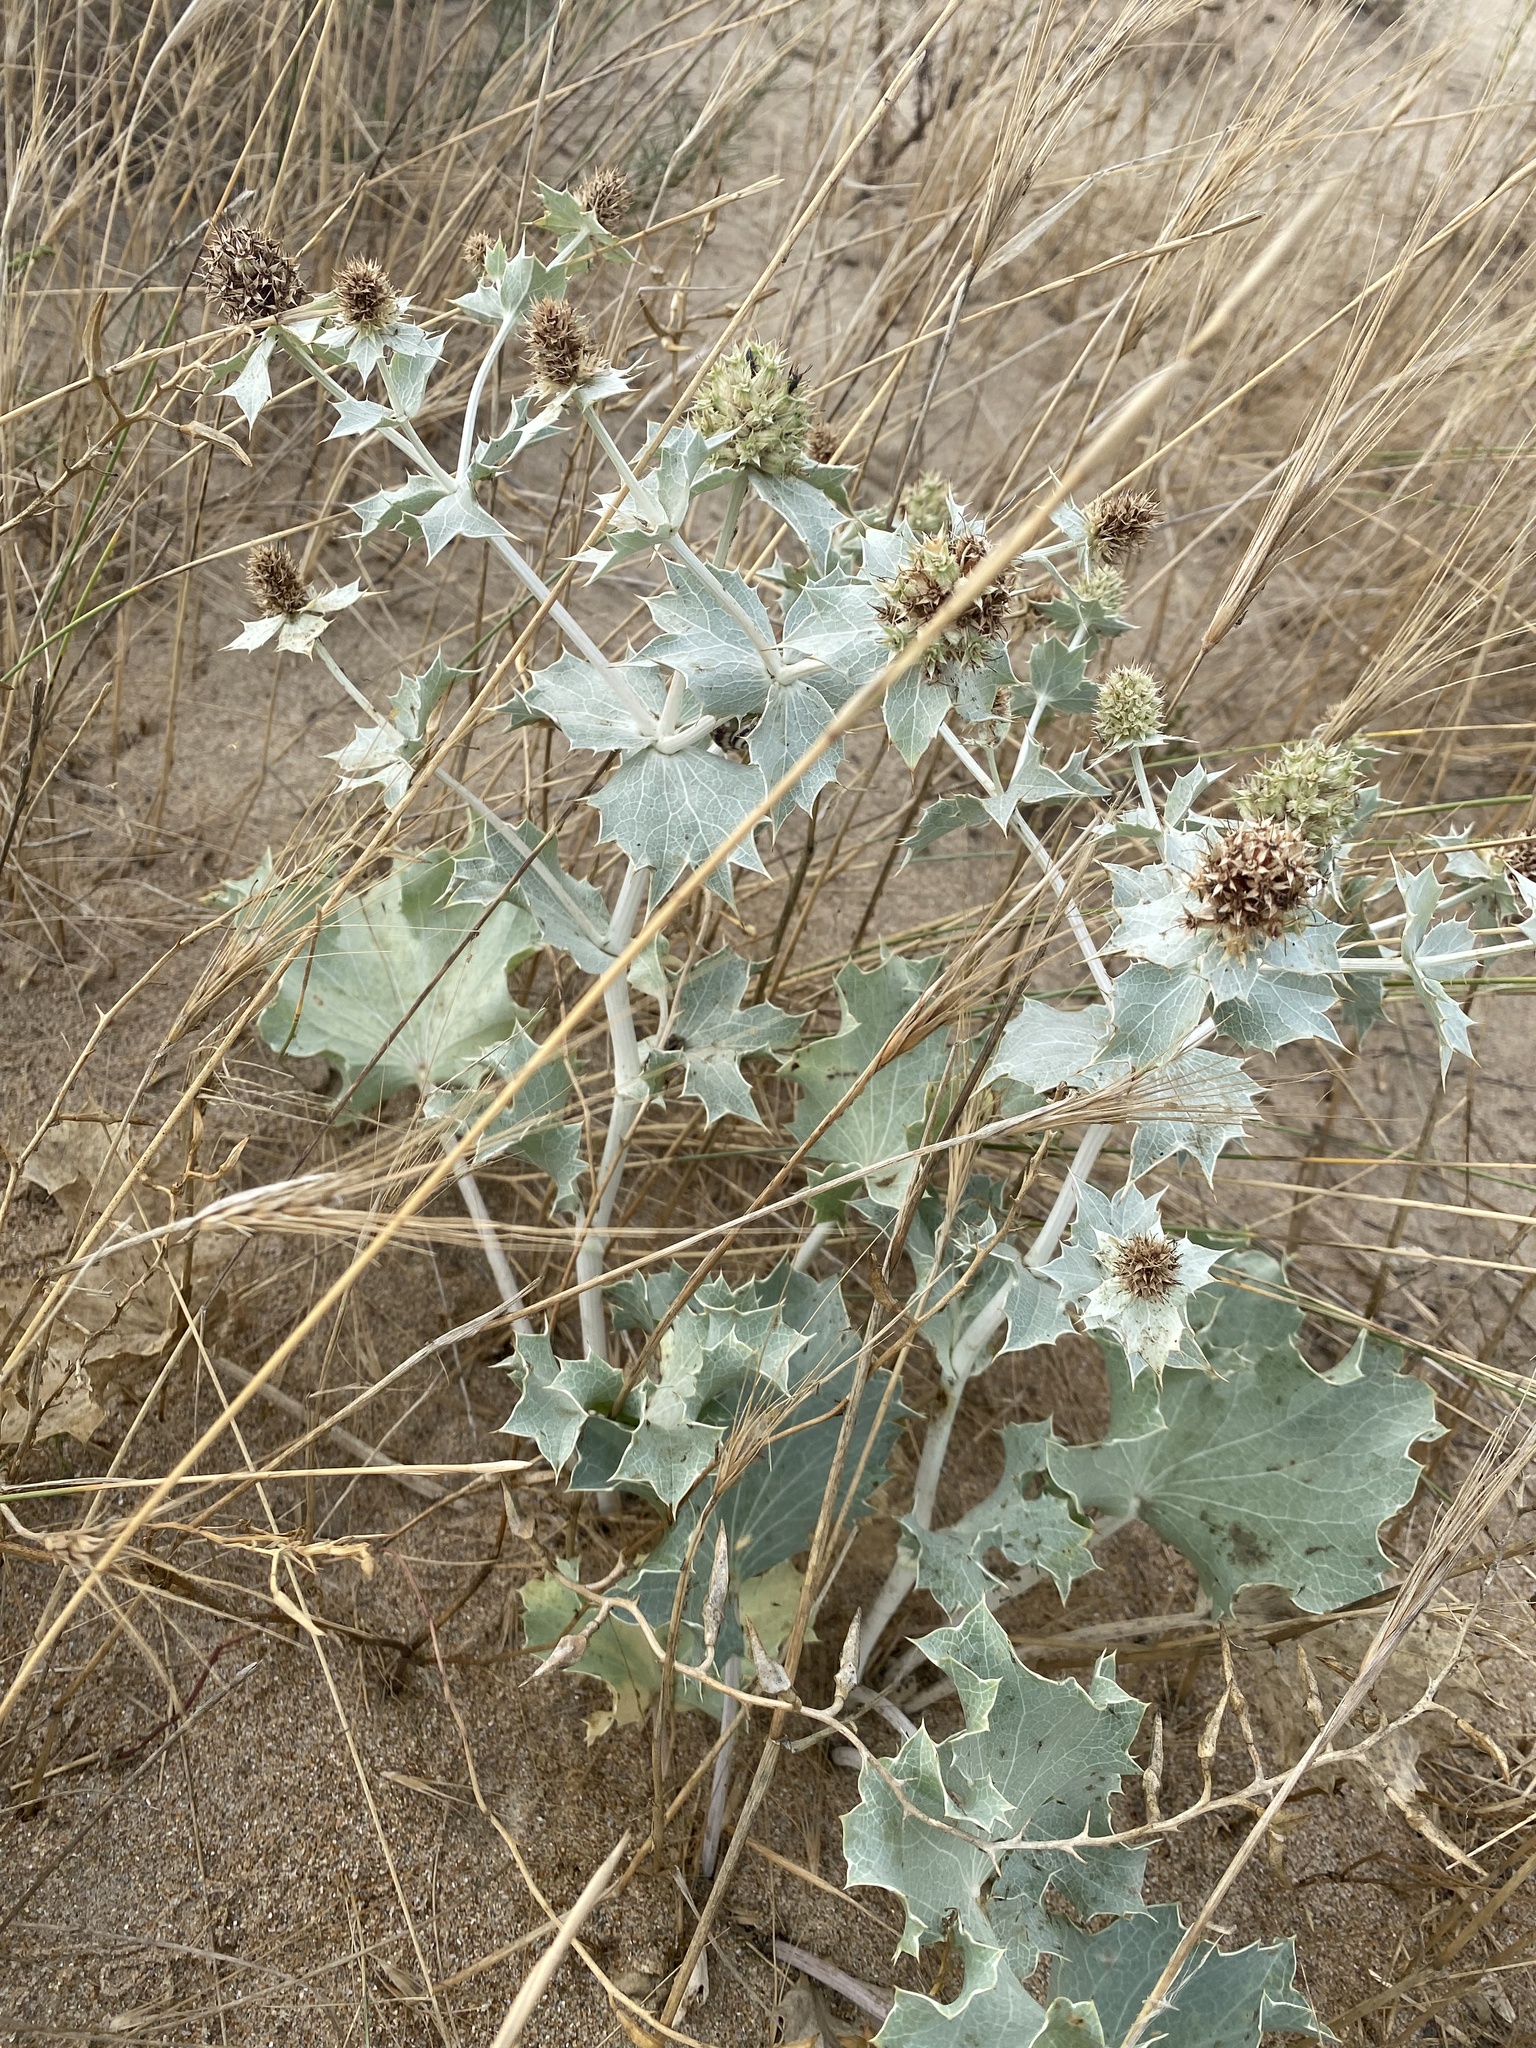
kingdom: Plantae
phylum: Tracheophyta
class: Magnoliopsida
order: Apiales
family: Apiaceae
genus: Eryngium
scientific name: Eryngium maritimum
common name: Sea-holly
